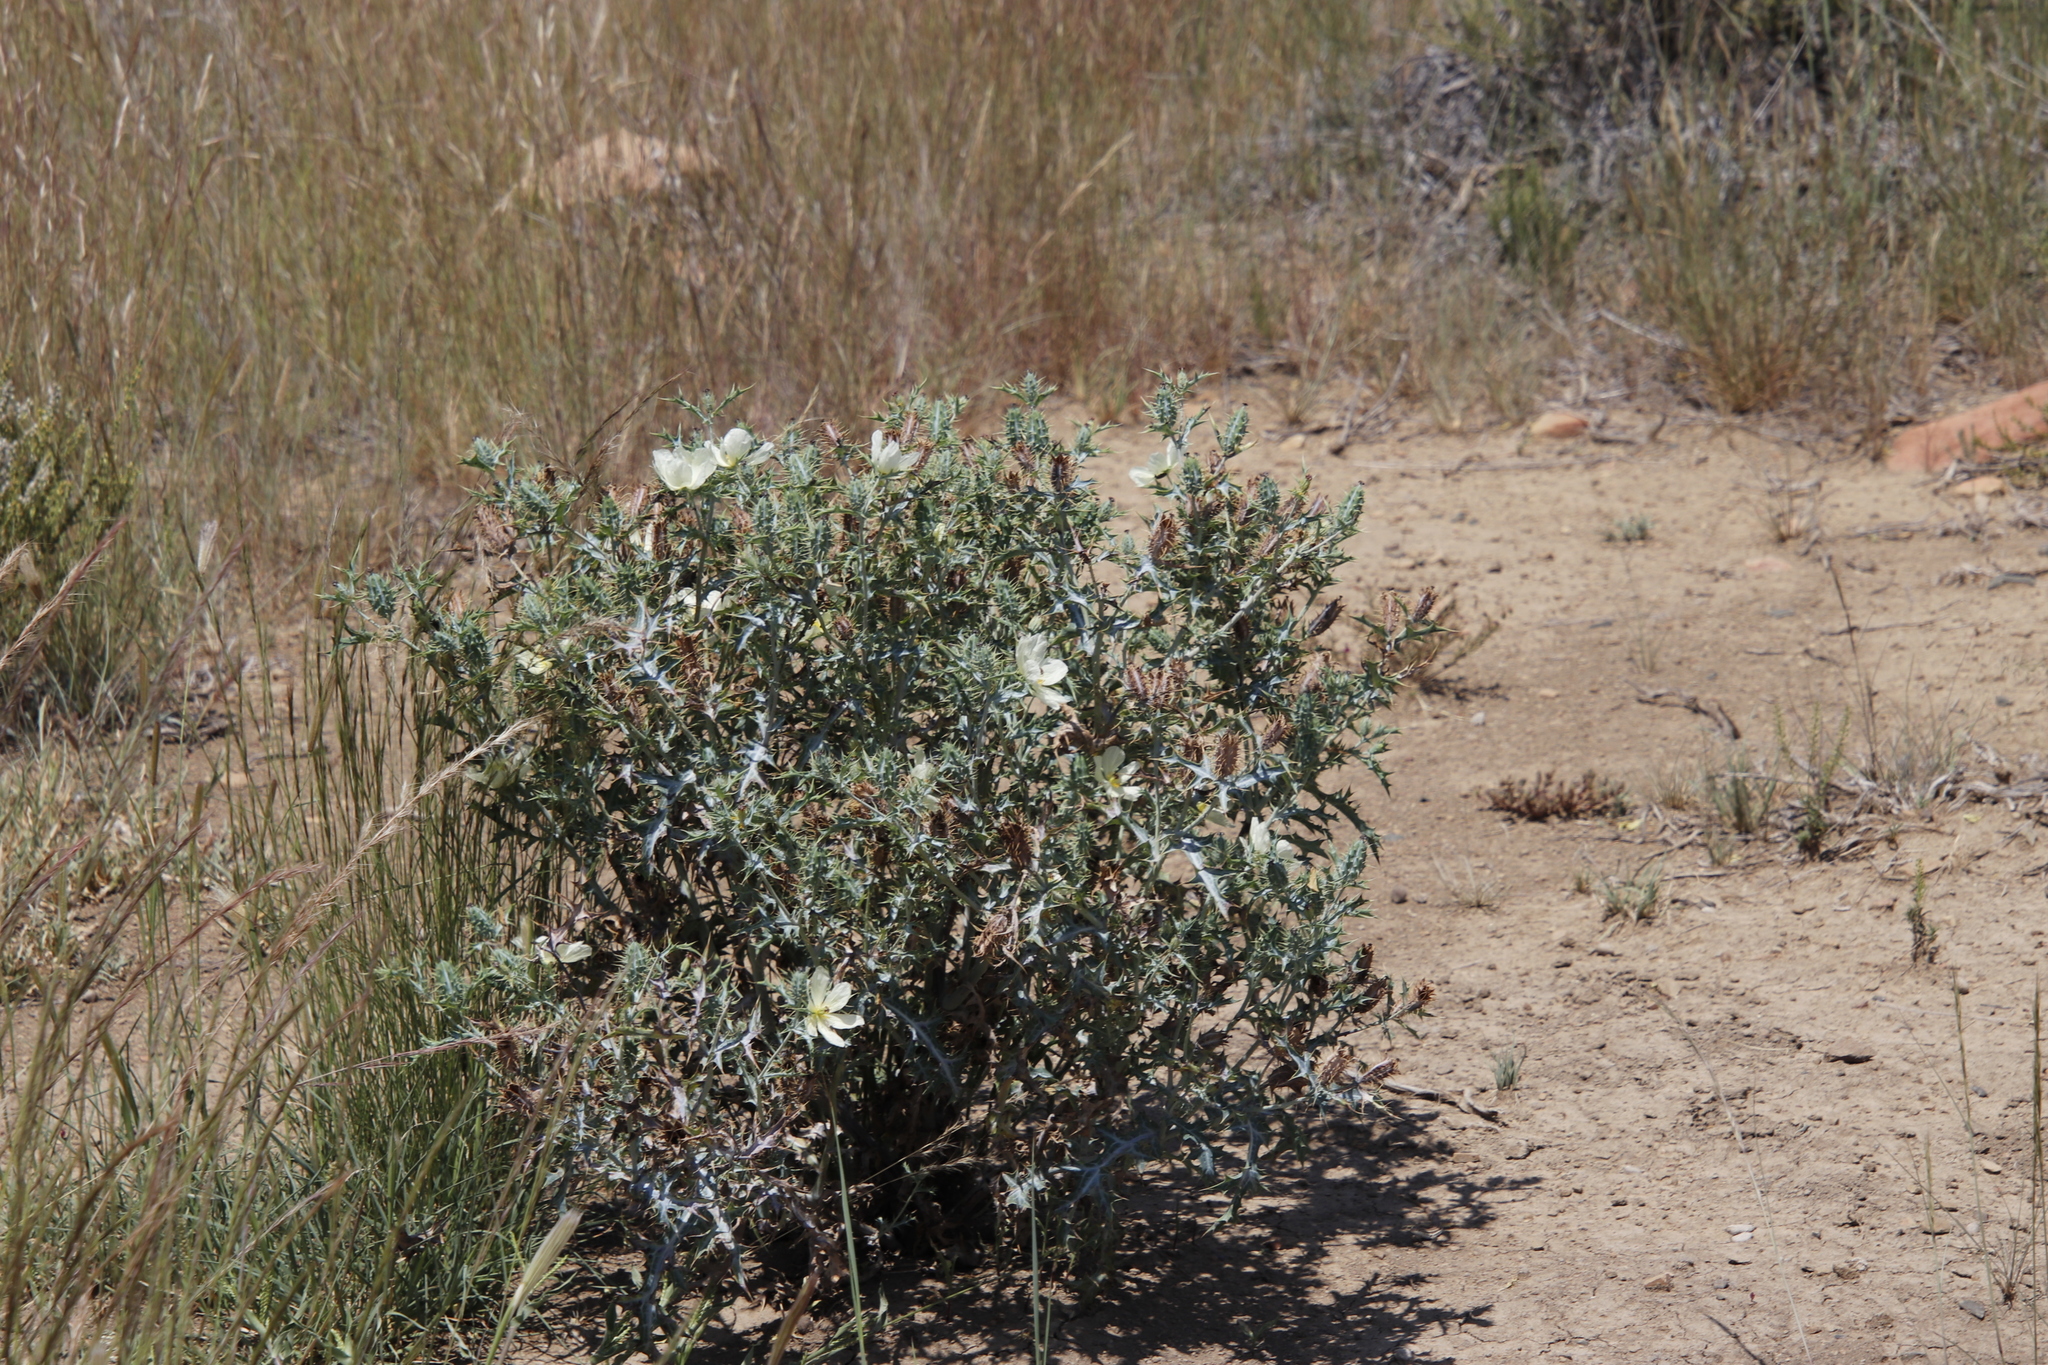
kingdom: Plantae
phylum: Tracheophyta
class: Magnoliopsida
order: Ranunculales
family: Papaveraceae
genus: Argemone
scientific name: Argemone ochroleuca
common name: White-flower mexican-poppy
